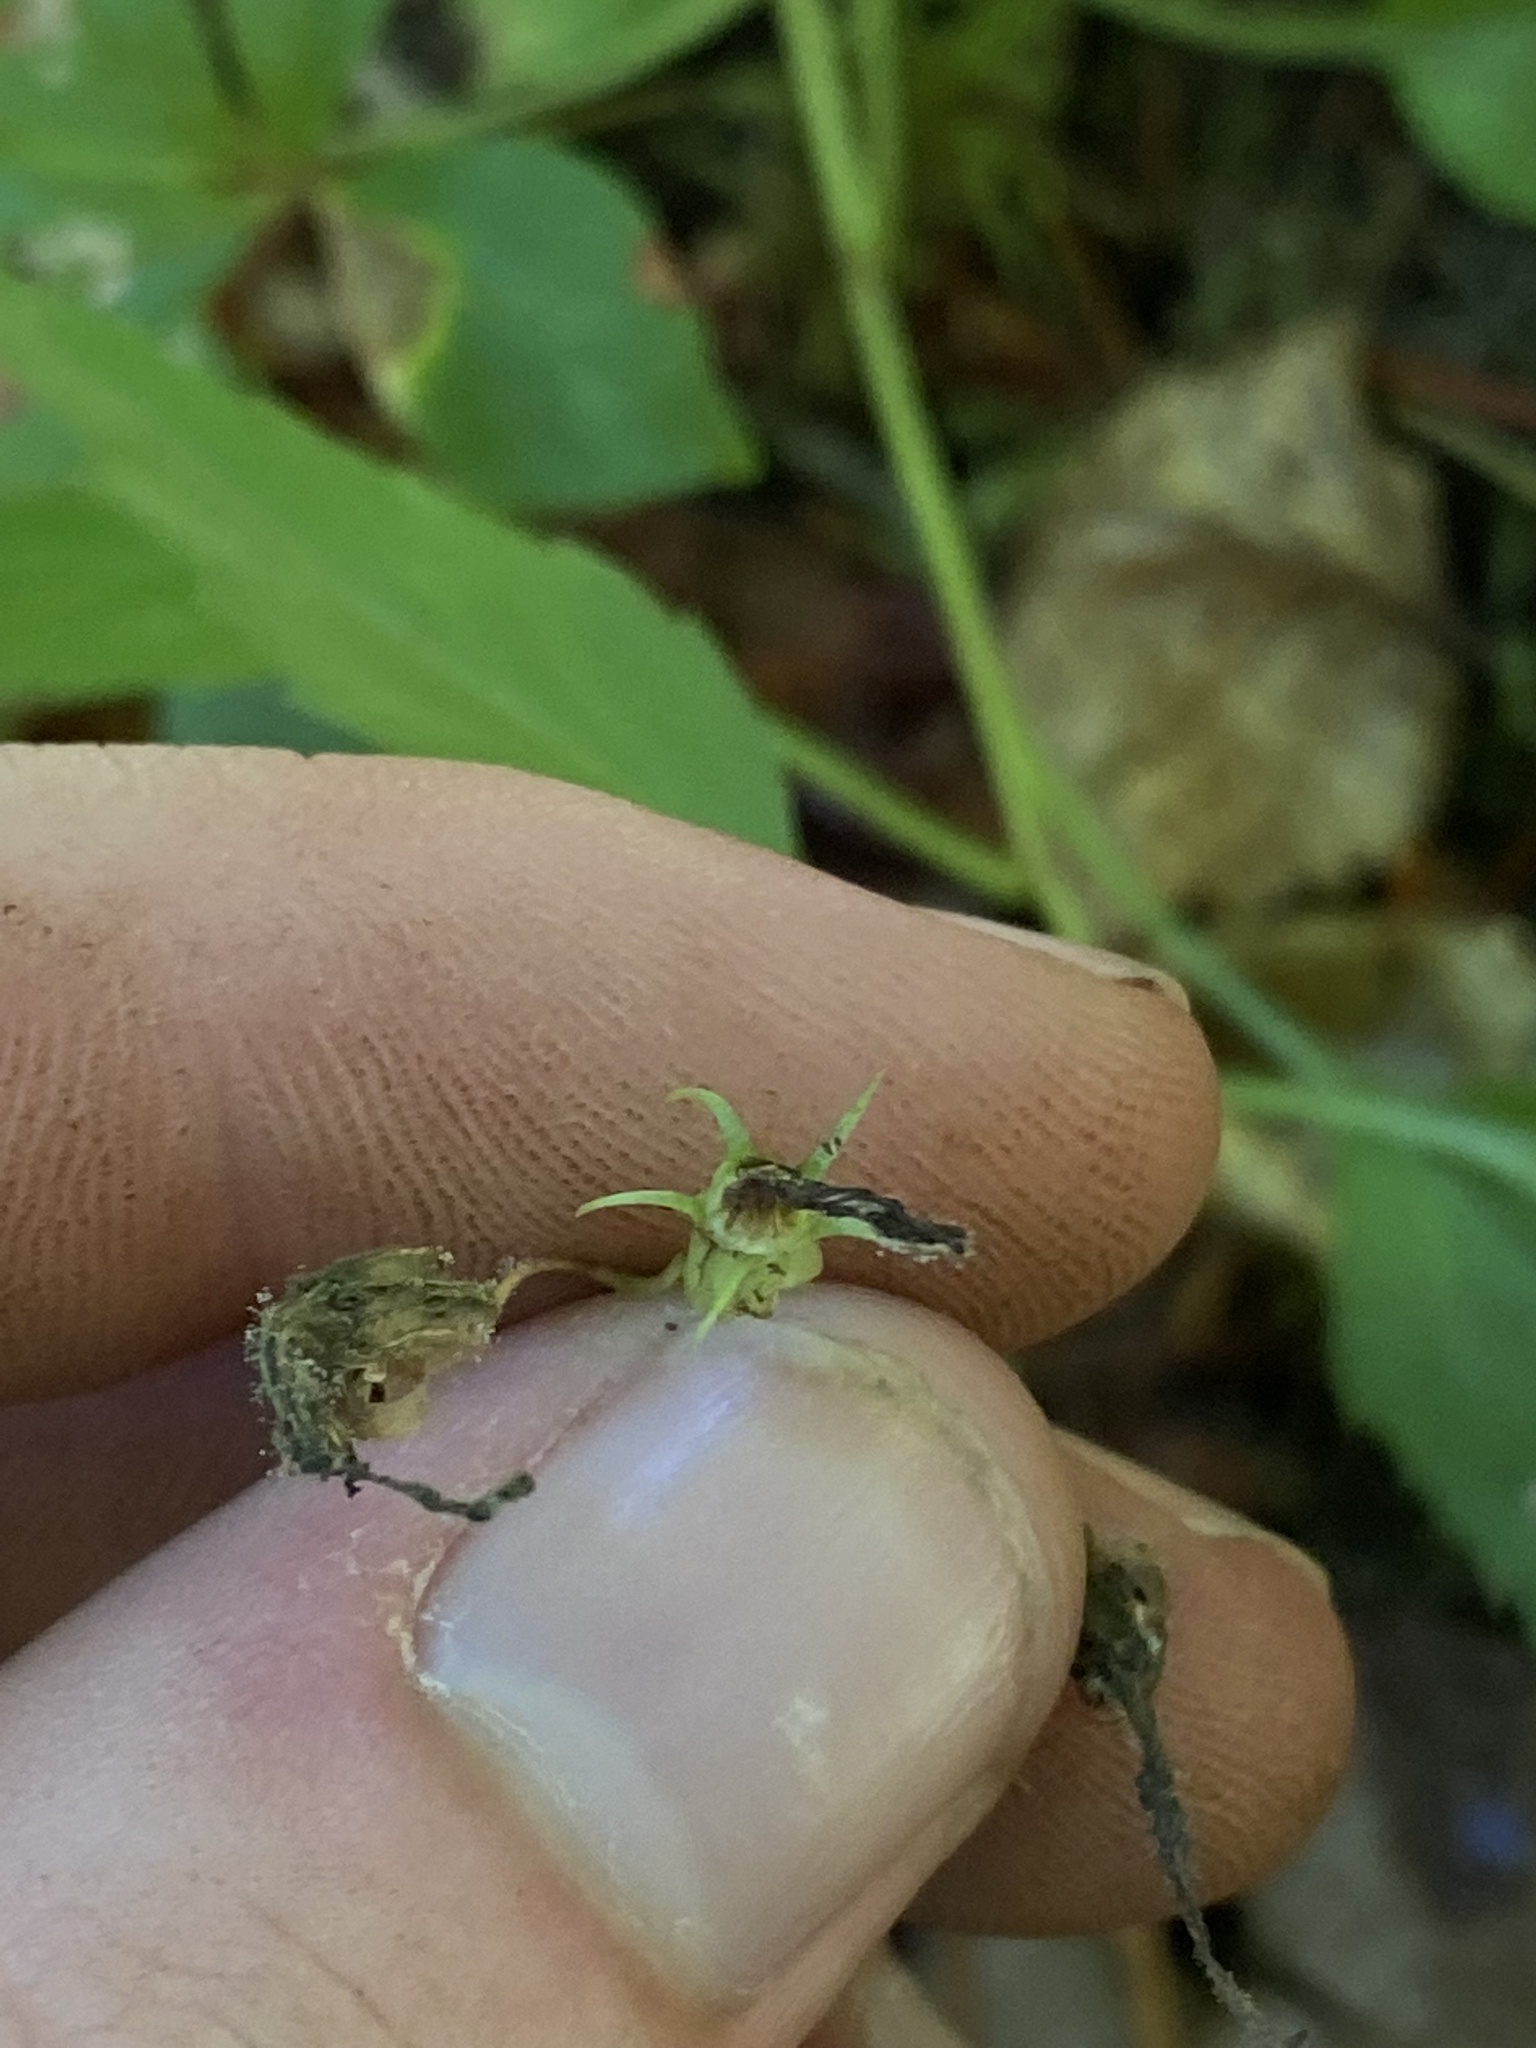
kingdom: Plantae
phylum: Tracheophyta
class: Magnoliopsida
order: Asterales
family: Campanulaceae
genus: Campanula
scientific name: Campanula scouleri
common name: Scouler's harebell
